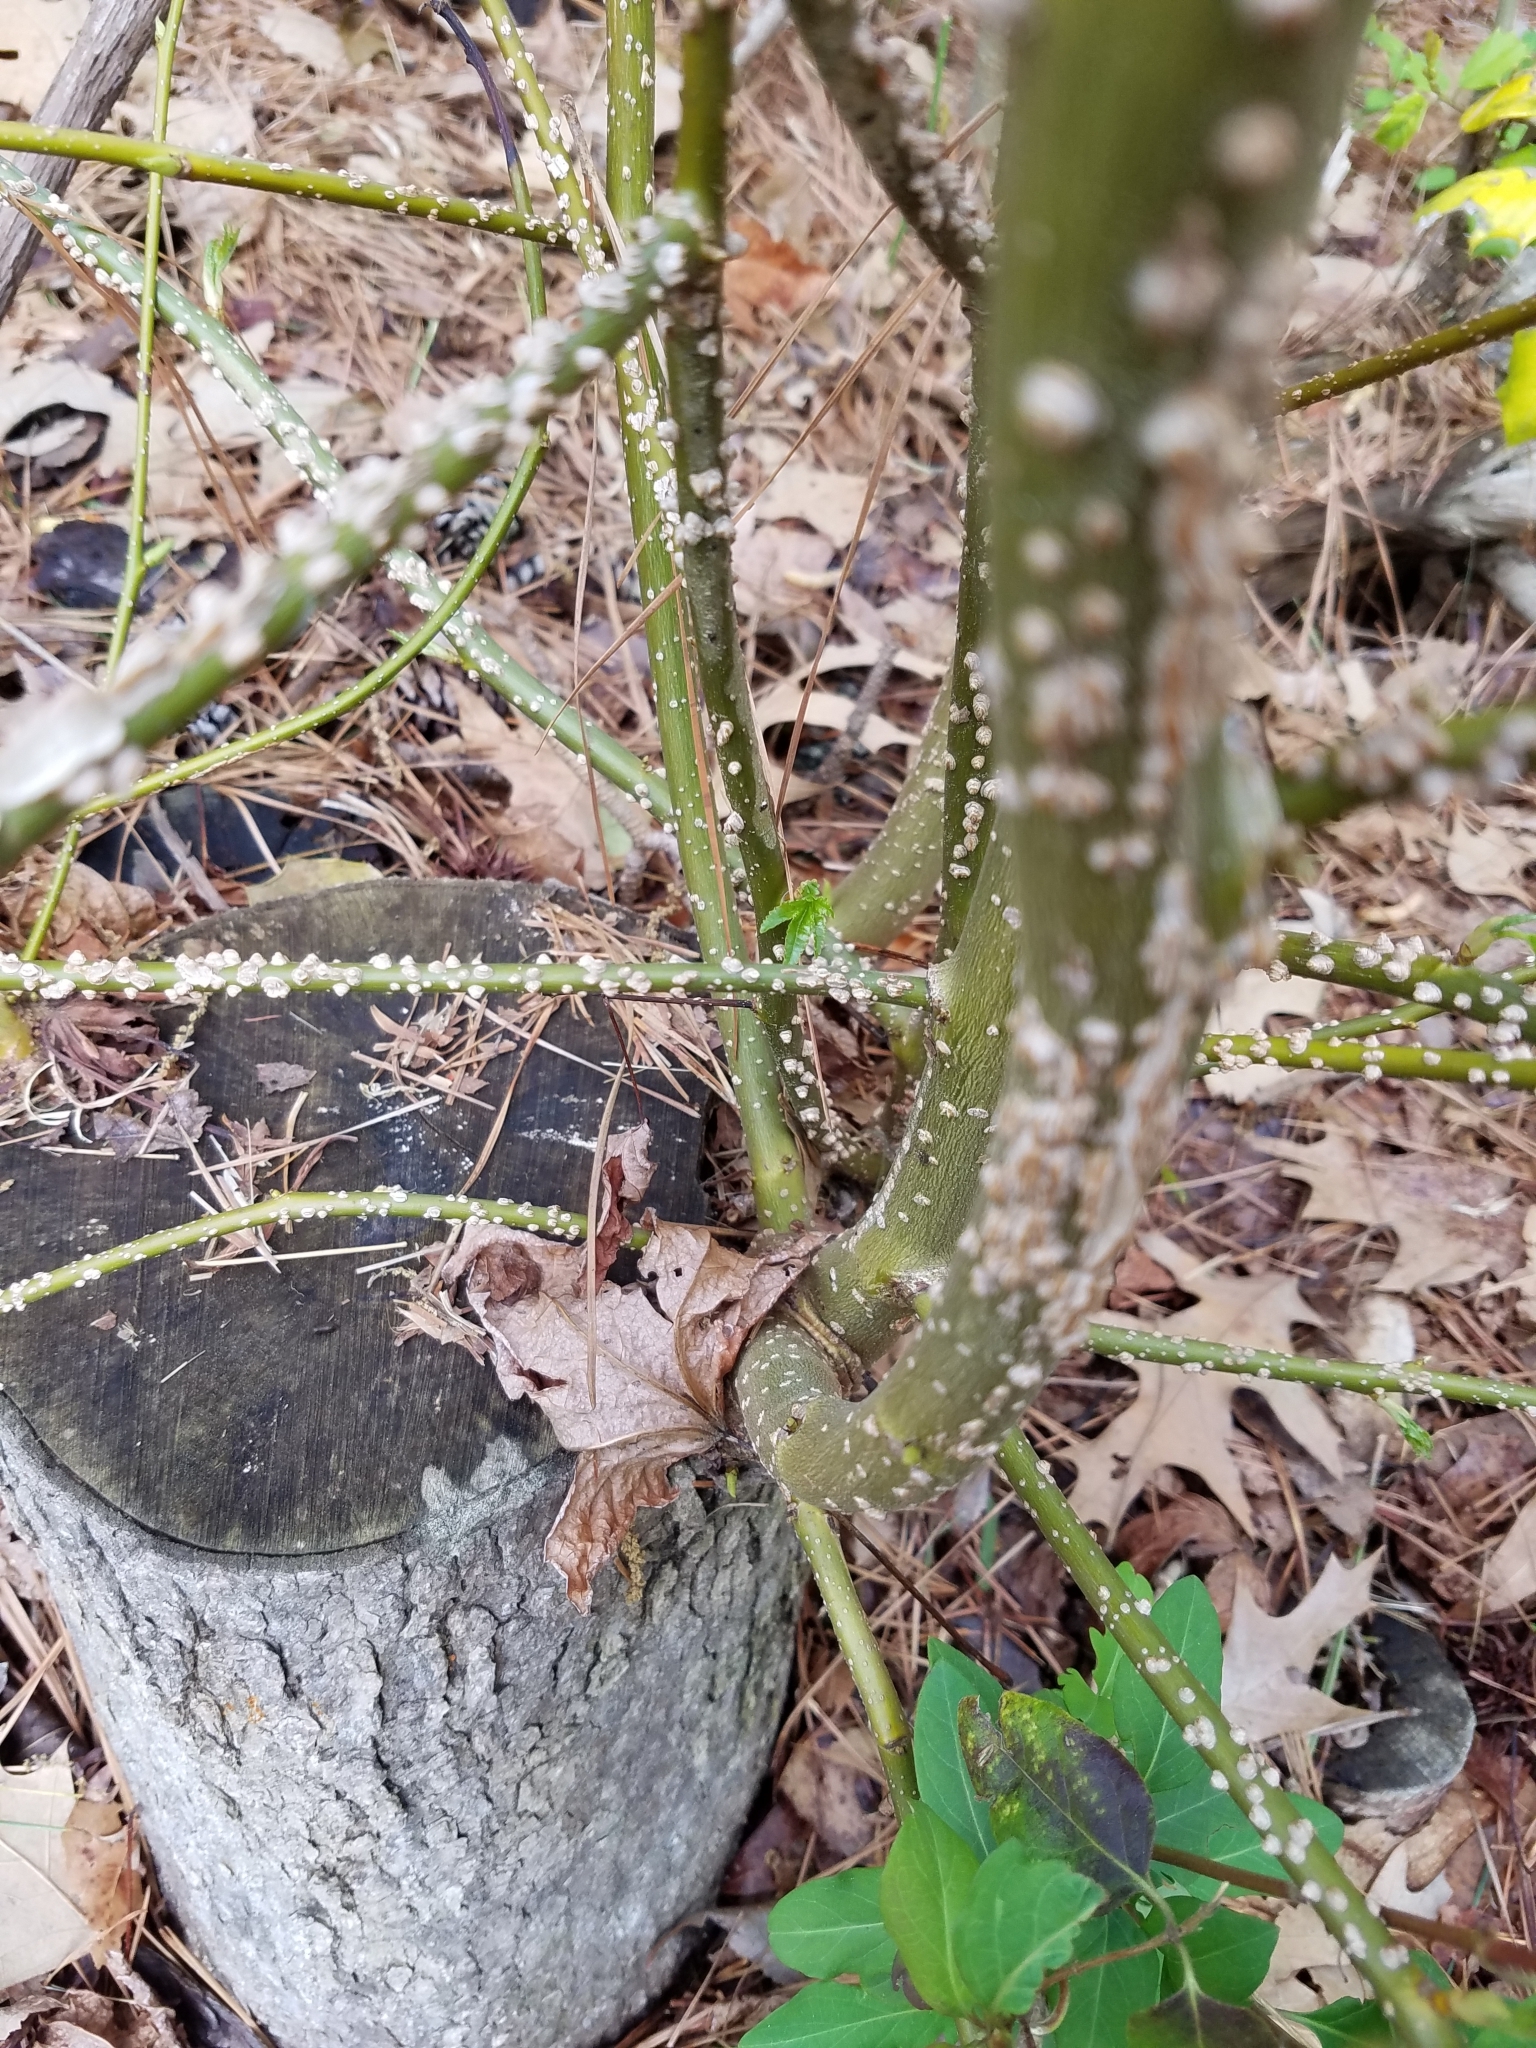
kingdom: Plantae
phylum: Tracheophyta
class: Magnoliopsida
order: Saxifragales
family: Altingiaceae
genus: Liquidambar
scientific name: Liquidambar styraciflua
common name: Sweet gum
